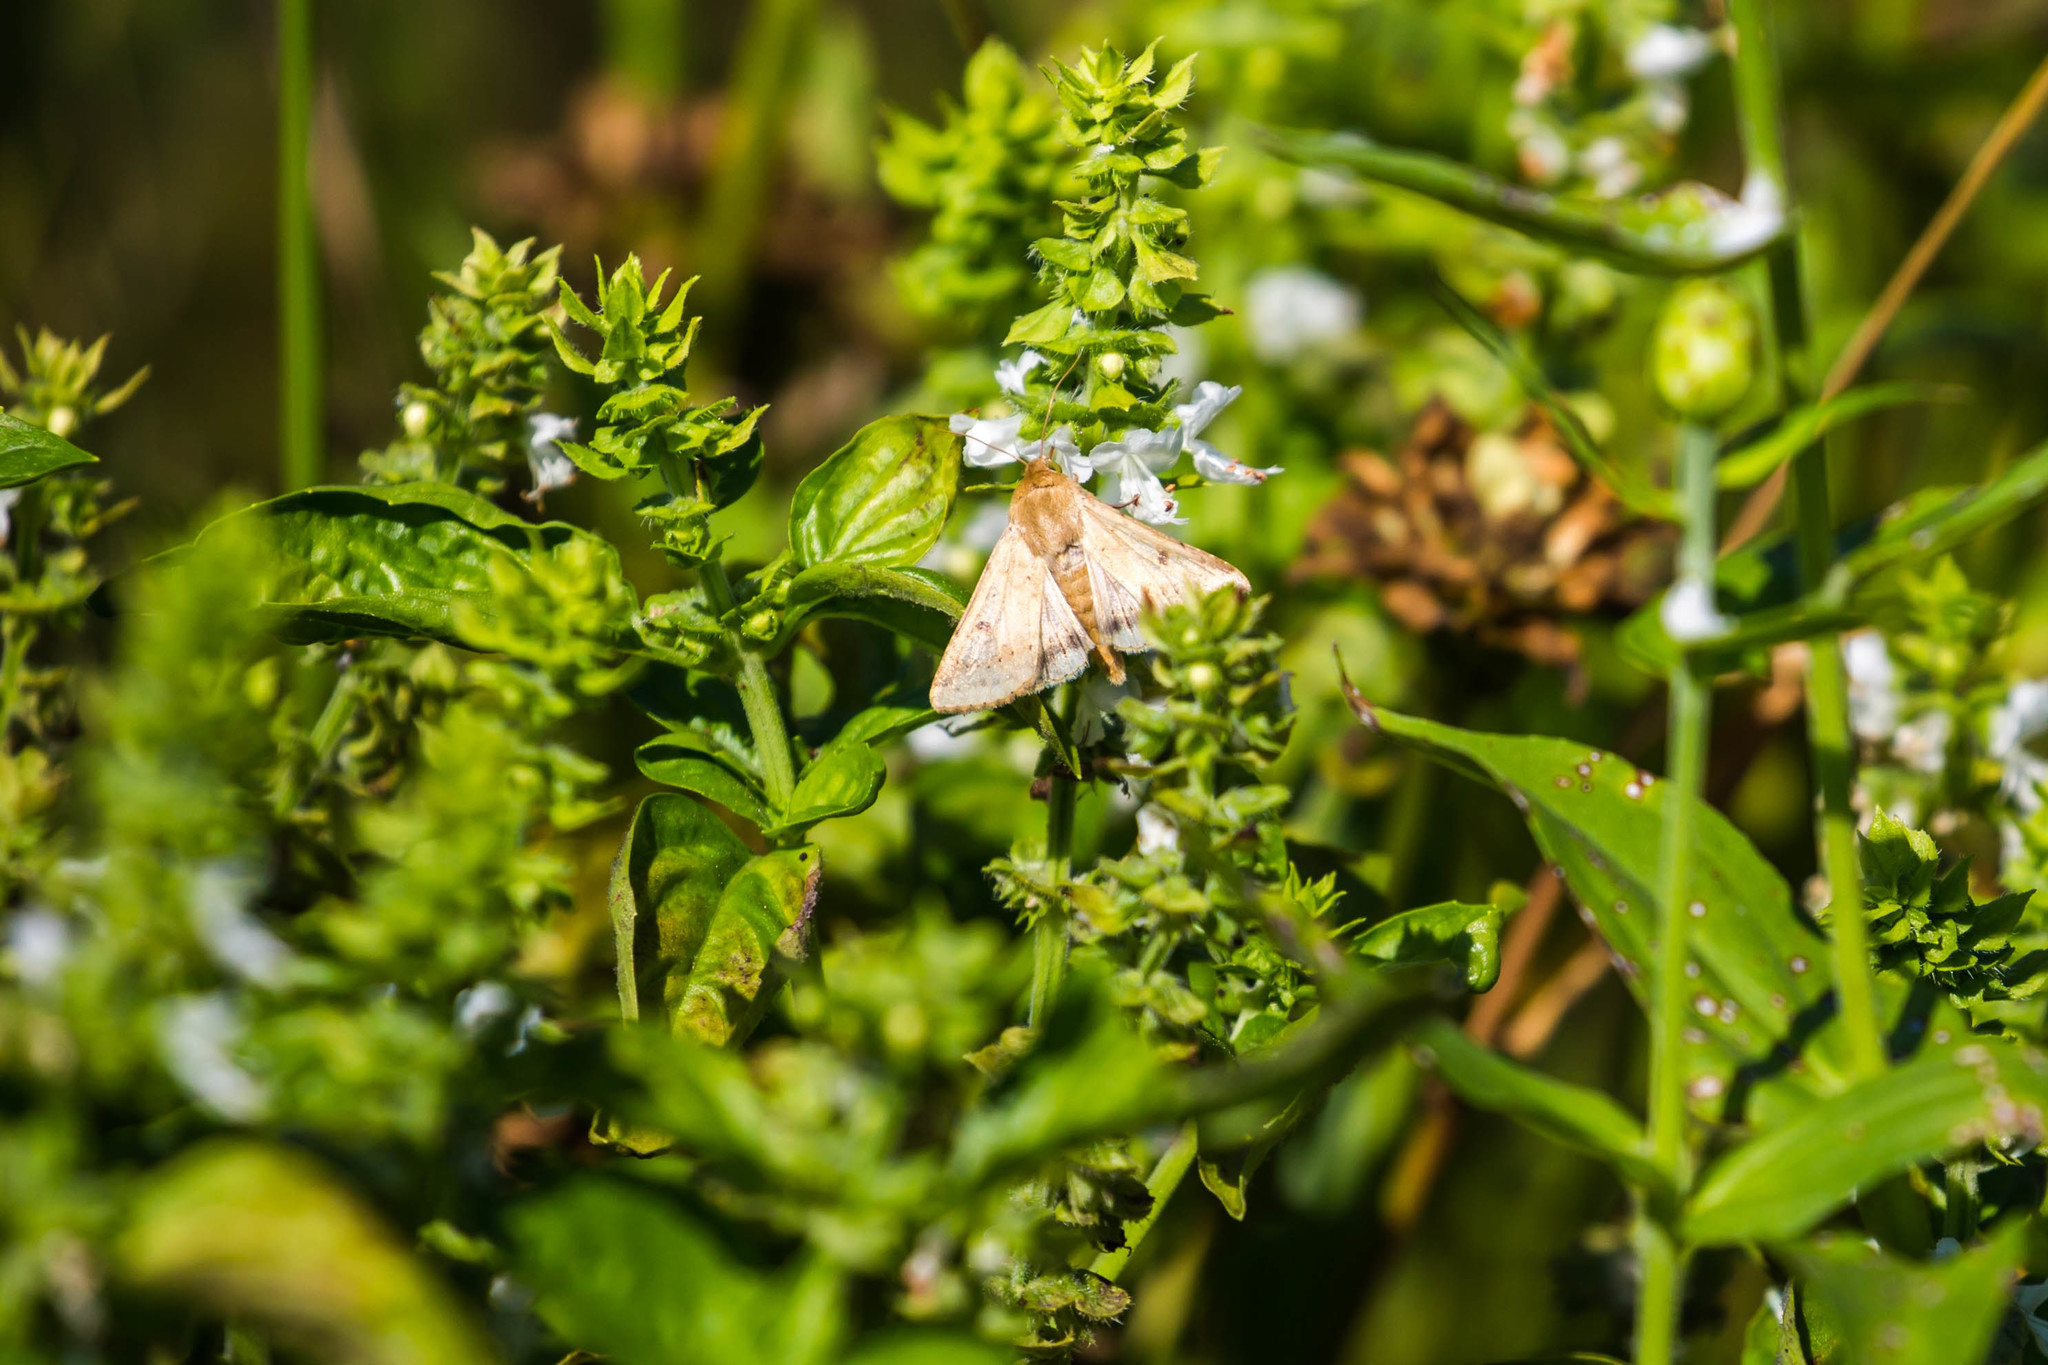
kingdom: Animalia
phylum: Arthropoda
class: Insecta
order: Lepidoptera
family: Noctuidae
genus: Helicoverpa
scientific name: Helicoverpa zea
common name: Bollworm
